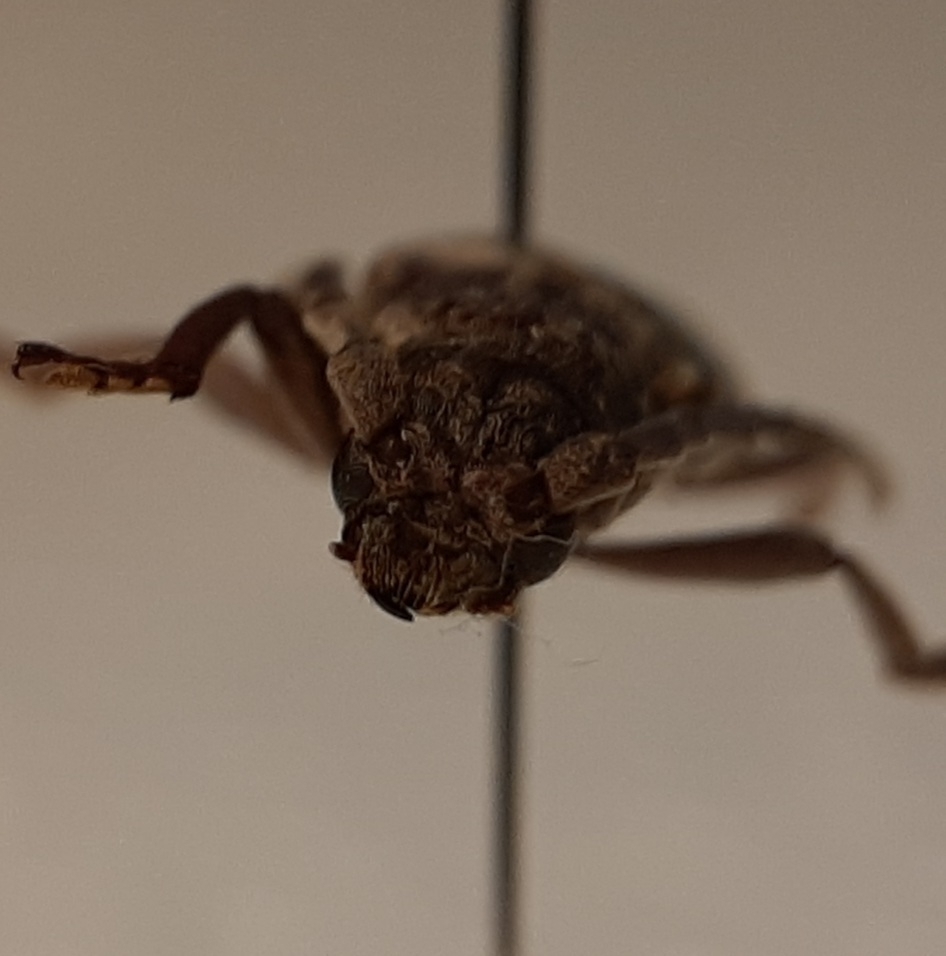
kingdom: Animalia
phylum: Arthropoda
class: Insecta
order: Coleoptera
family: Cerambycidae
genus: Taurotagus
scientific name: Taurotagus impressus
